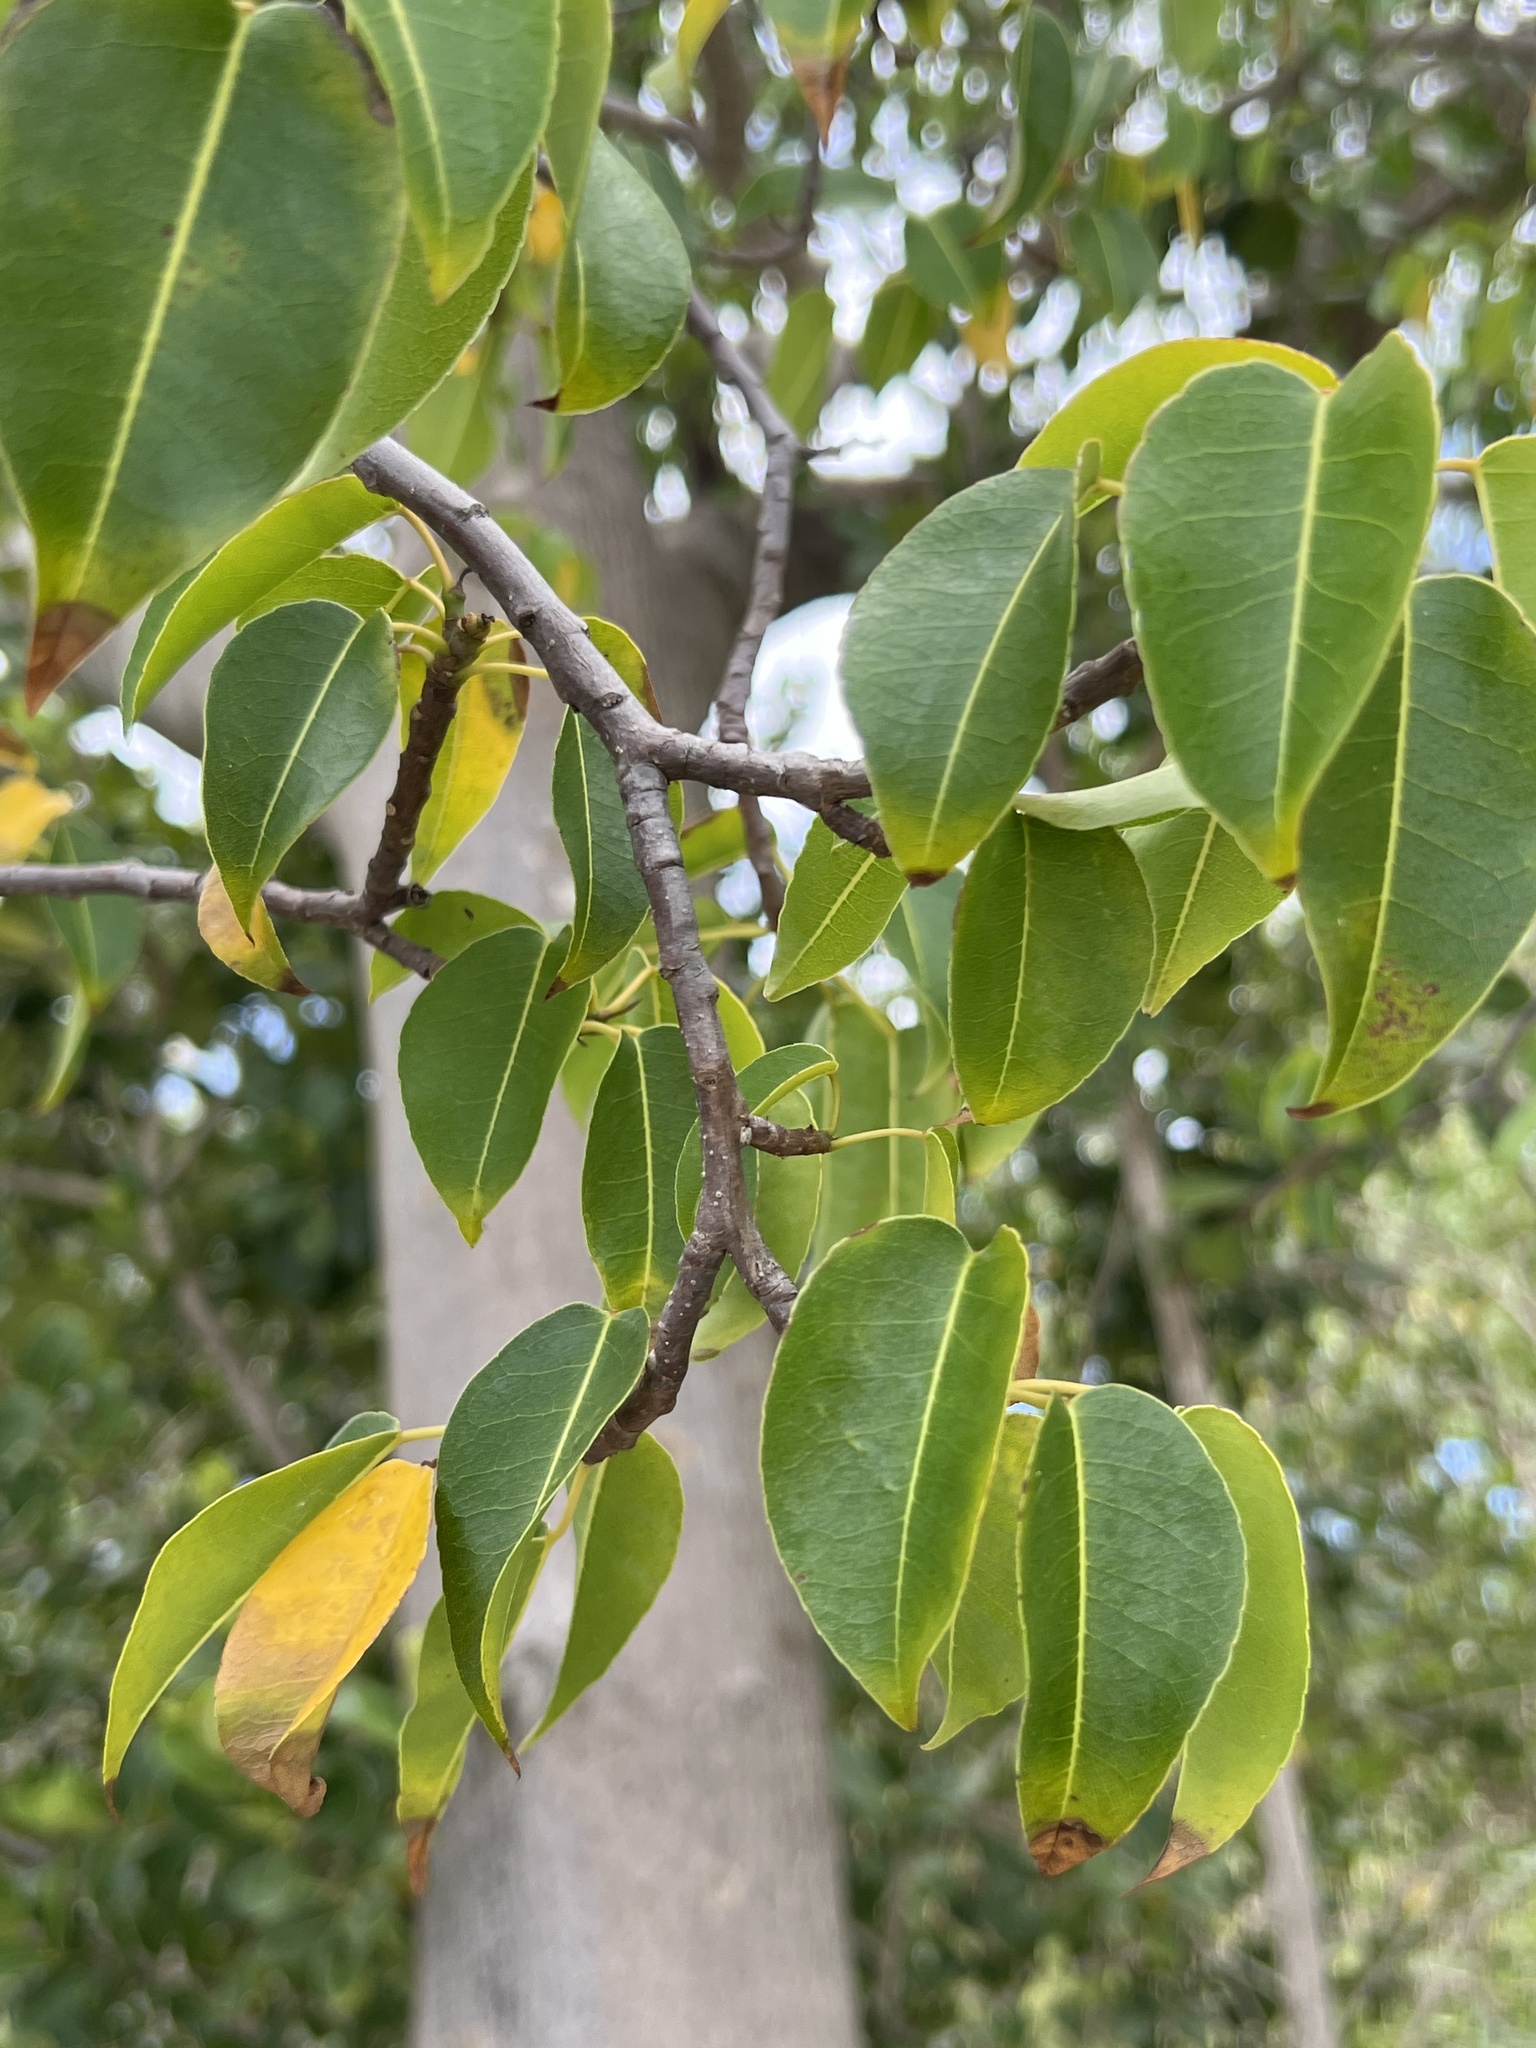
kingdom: Plantae
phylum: Tracheophyta
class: Magnoliopsida
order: Malpighiales
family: Euphorbiaceae
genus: Hippomane
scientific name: Hippomane mancinella
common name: Manchineel
